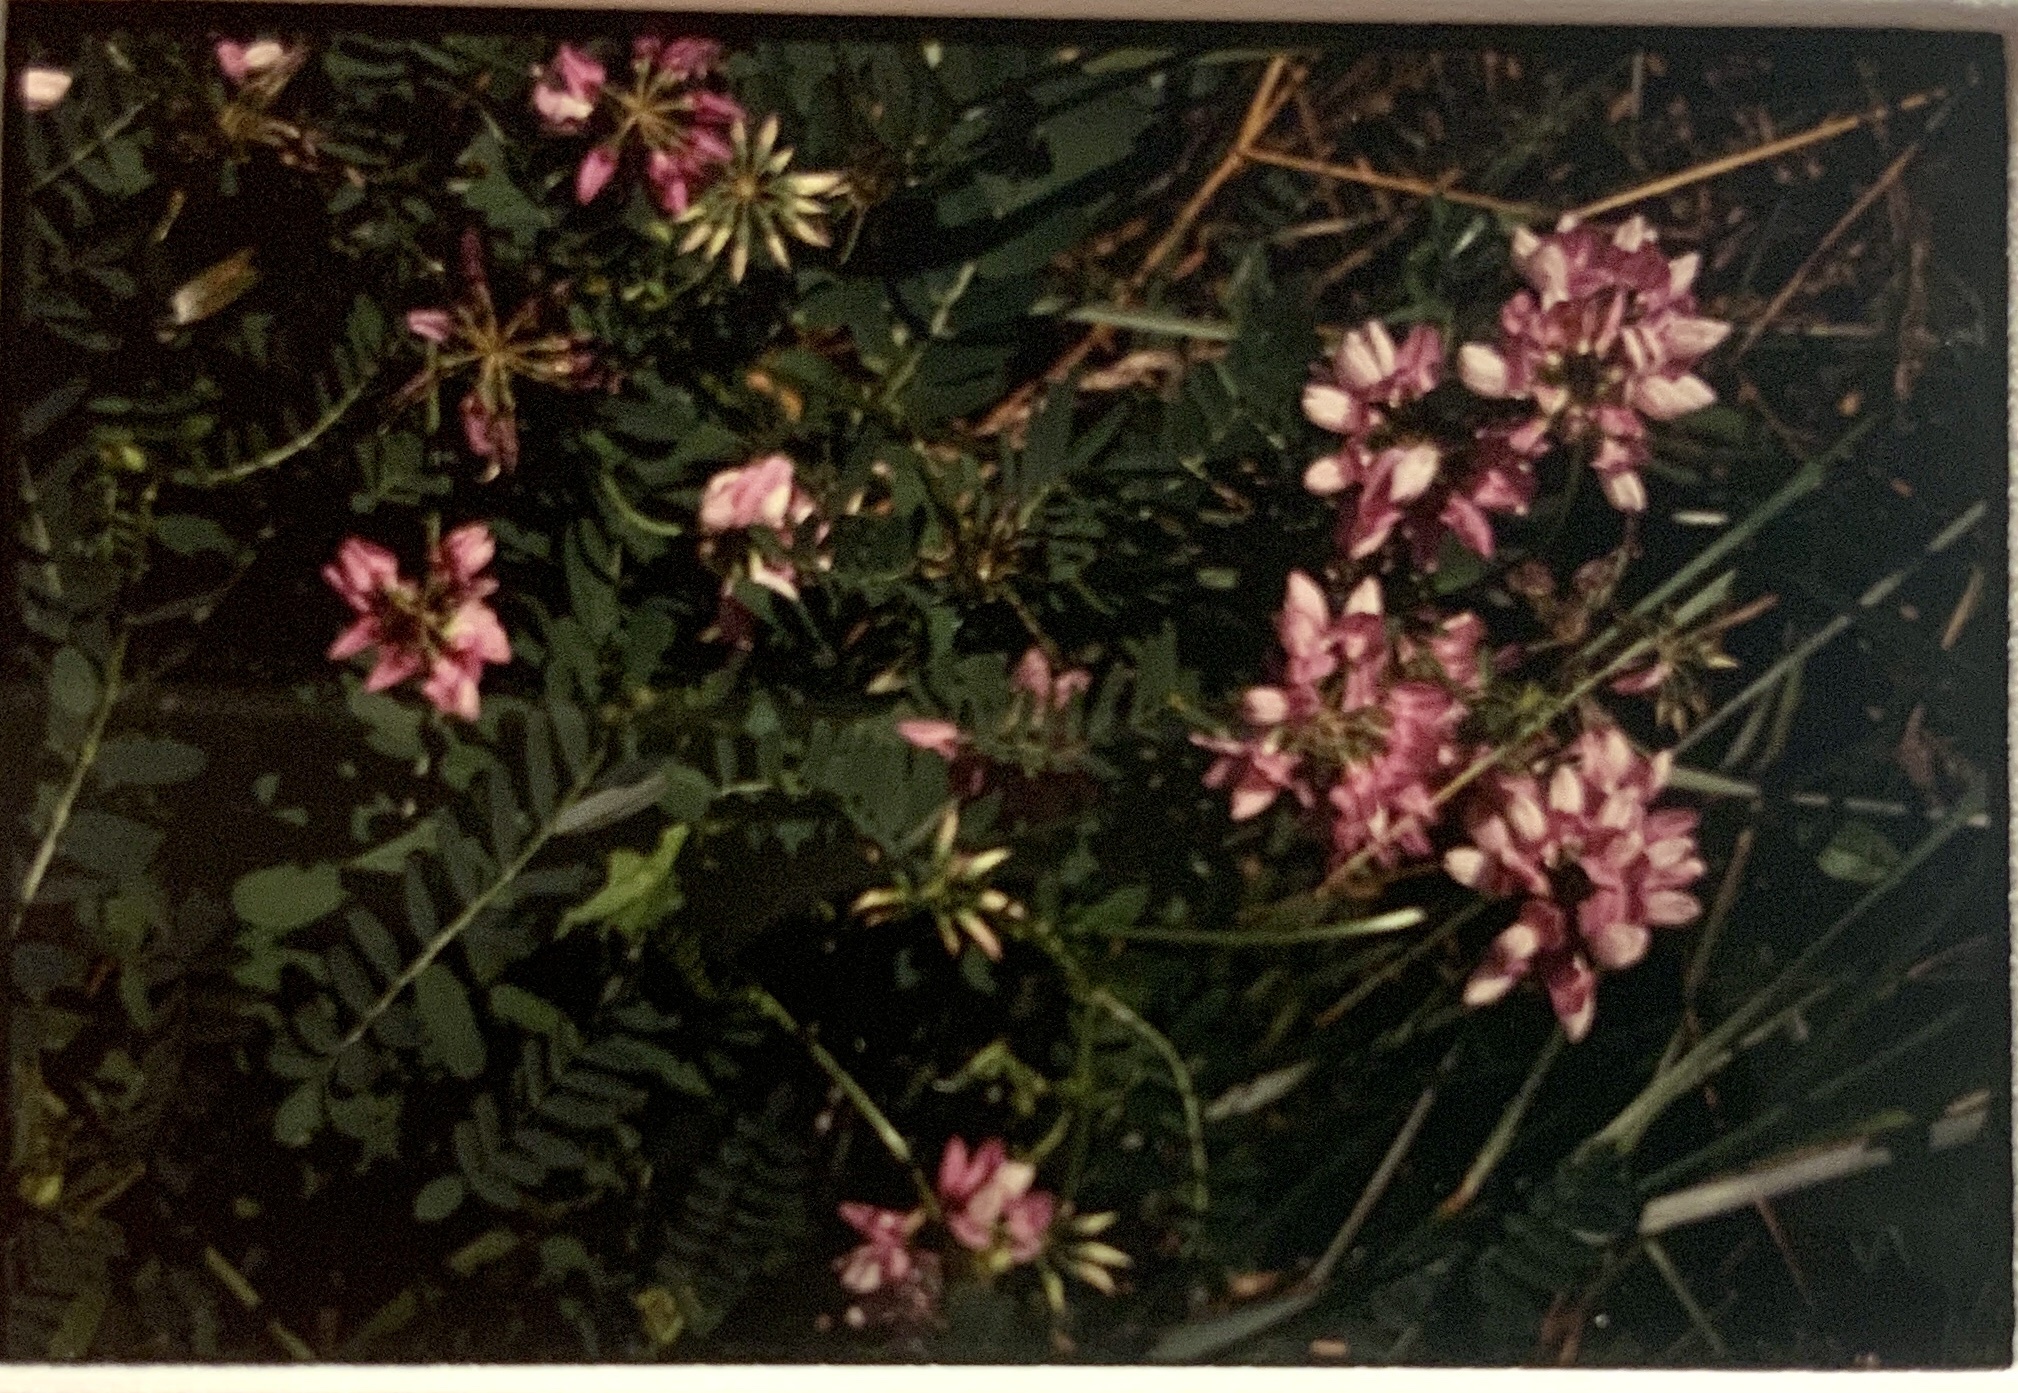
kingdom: Plantae
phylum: Tracheophyta
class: Magnoliopsida
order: Fabales
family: Fabaceae
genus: Coronilla
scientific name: Coronilla varia
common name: Crownvetch
